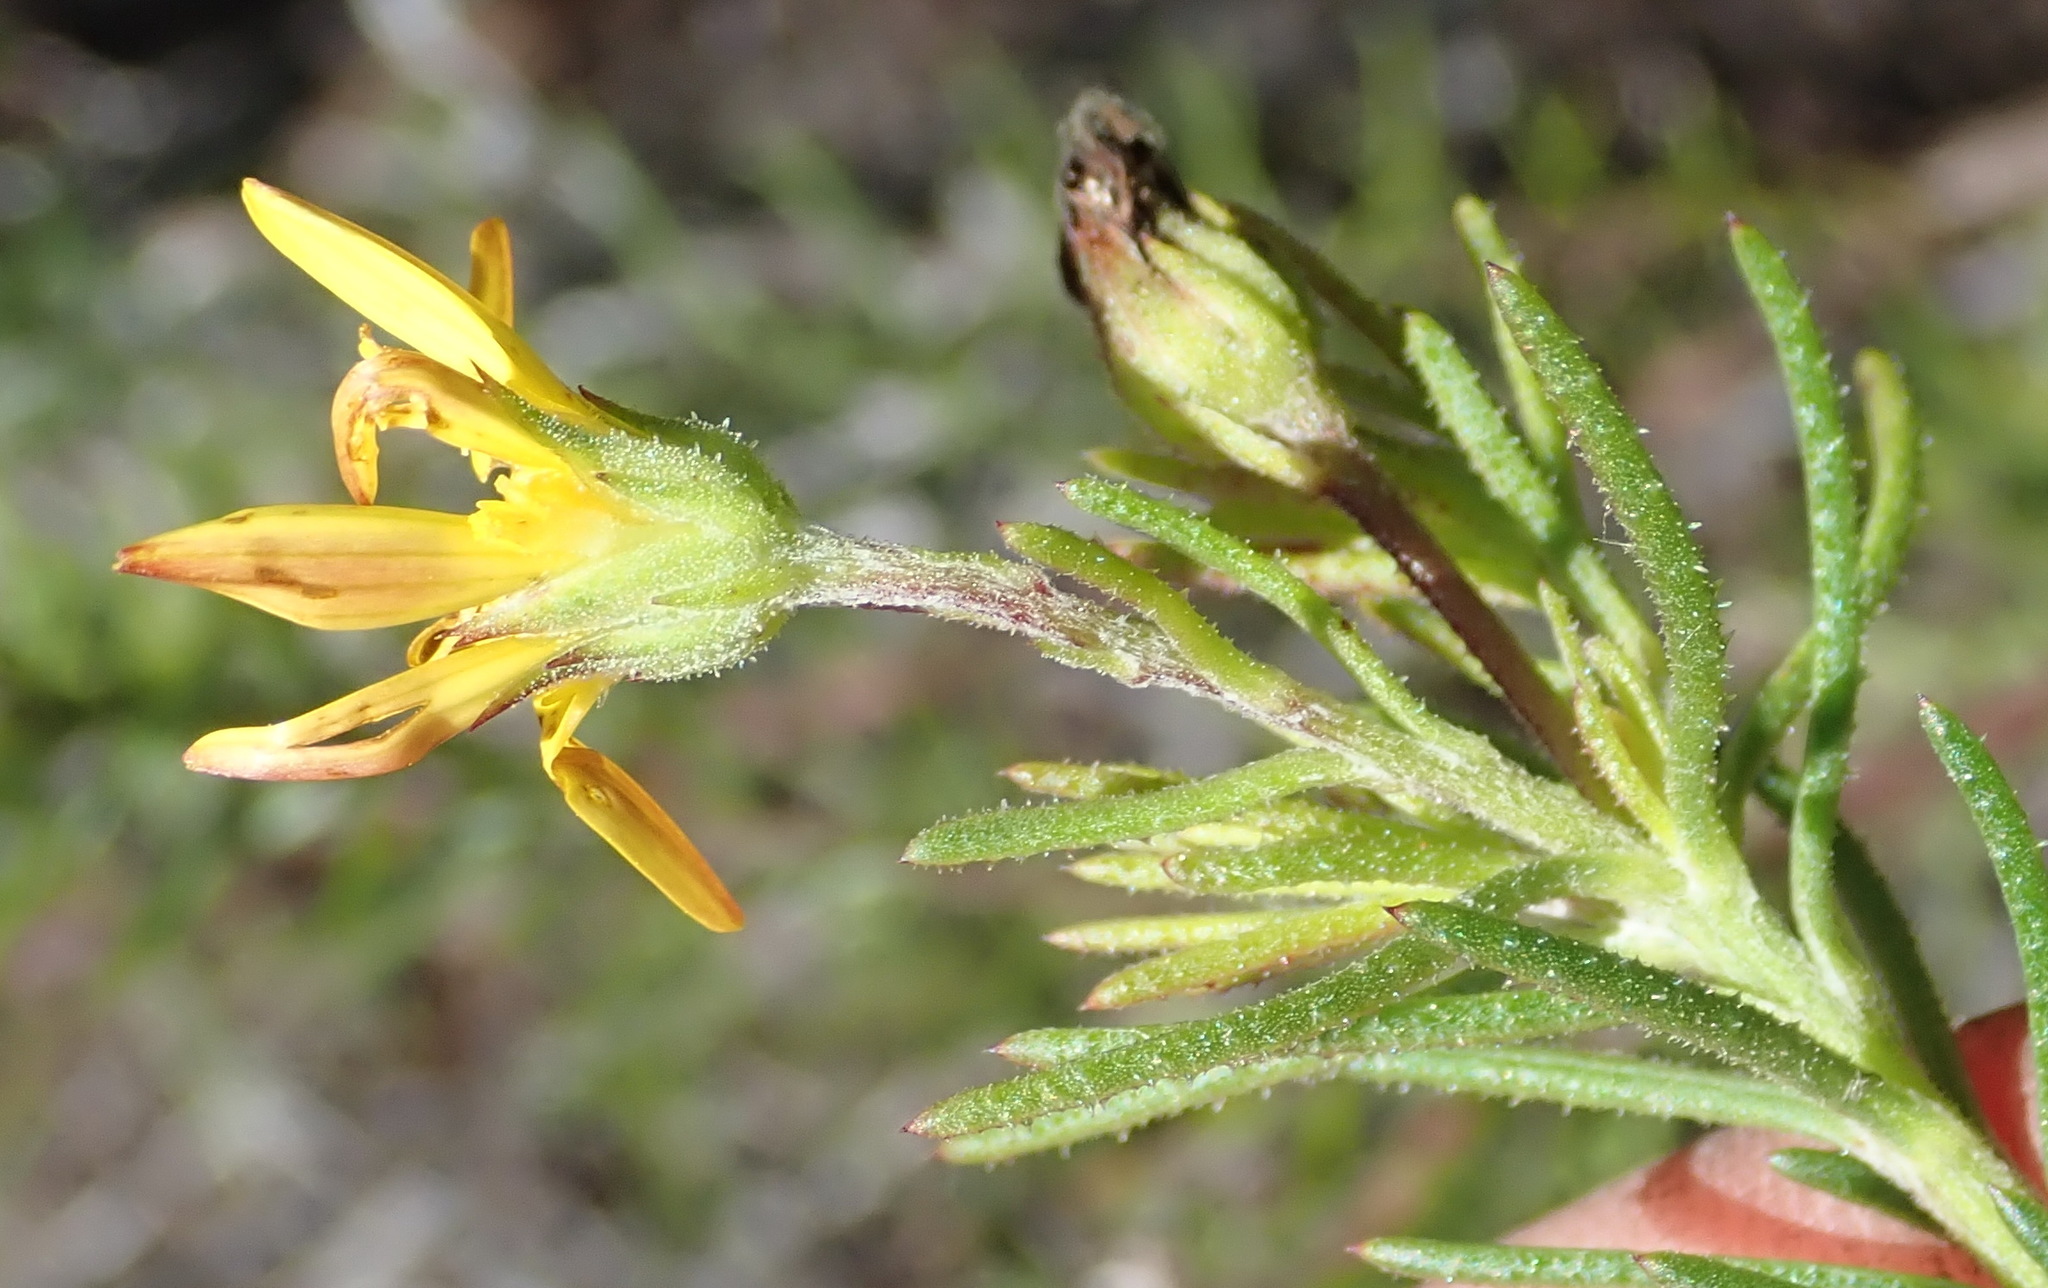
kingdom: Plantae
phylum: Tracheophyta
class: Magnoliopsida
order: Asterales
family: Asteraceae
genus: Gibbaria
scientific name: Gibbaria scabra
